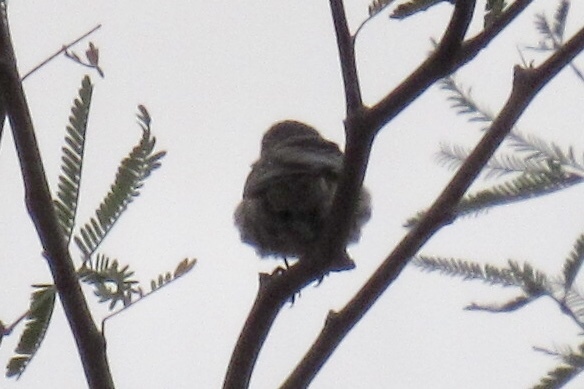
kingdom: Animalia
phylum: Chordata
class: Aves
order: Passeriformes
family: Parulidae
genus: Setophaga
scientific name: Setophaga coronata
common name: Myrtle warbler
